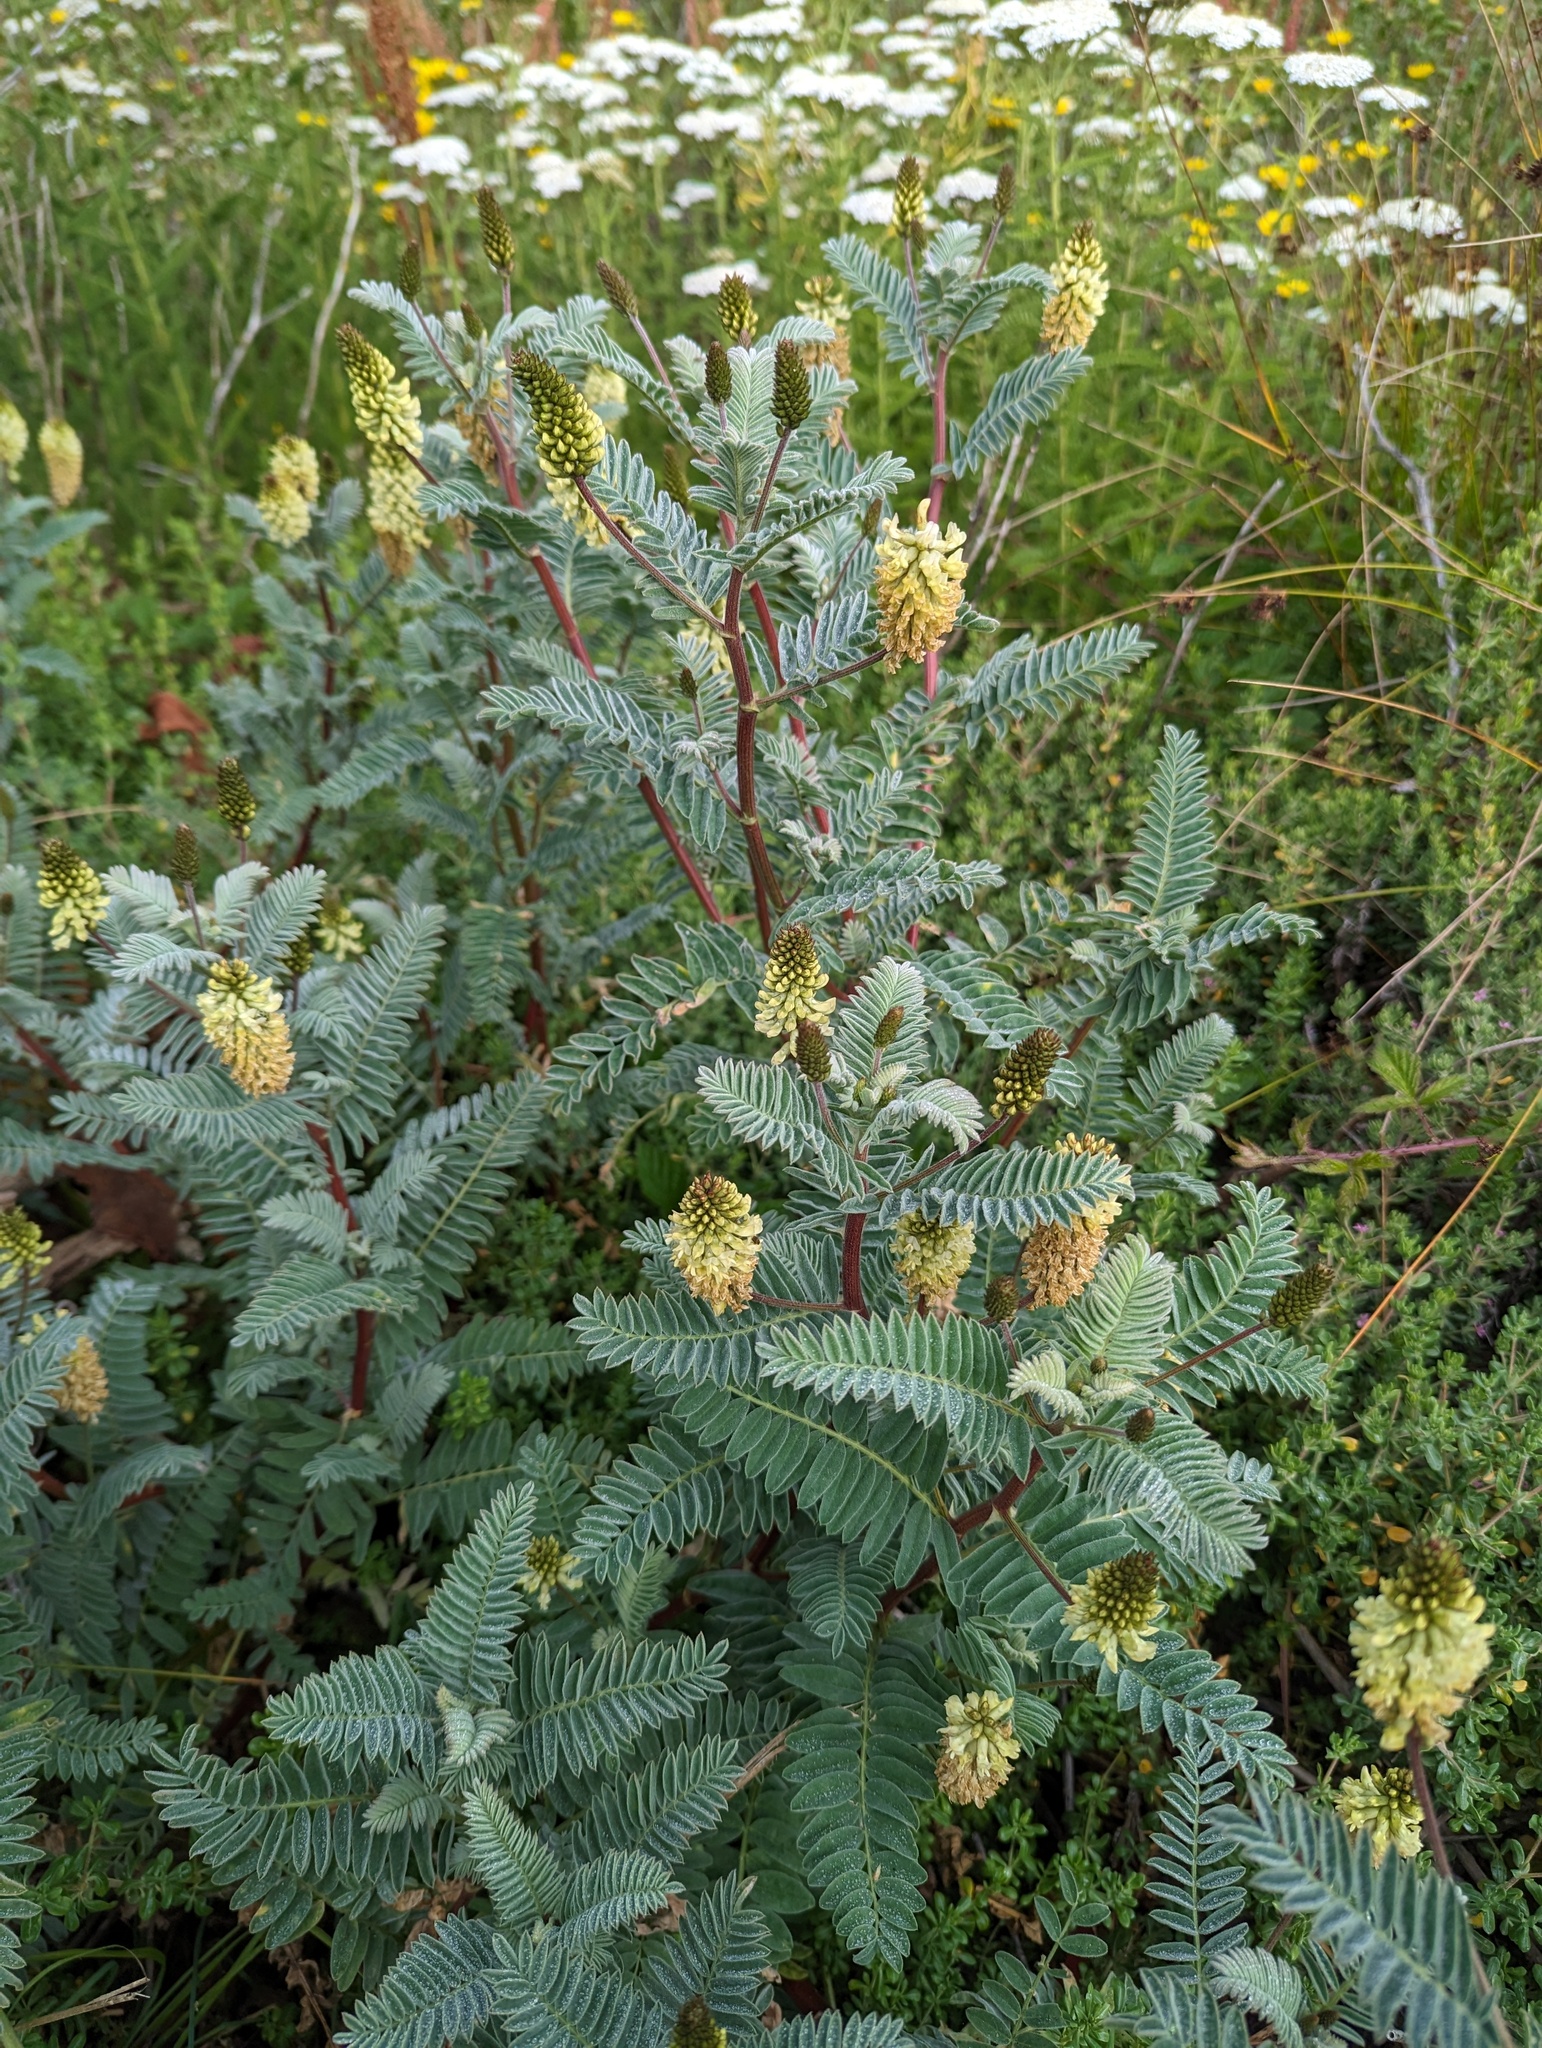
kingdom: Plantae
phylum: Tracheophyta
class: Magnoliopsida
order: Fabales
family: Fabaceae
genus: Astragalus
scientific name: Astragalus pycnostachyus
